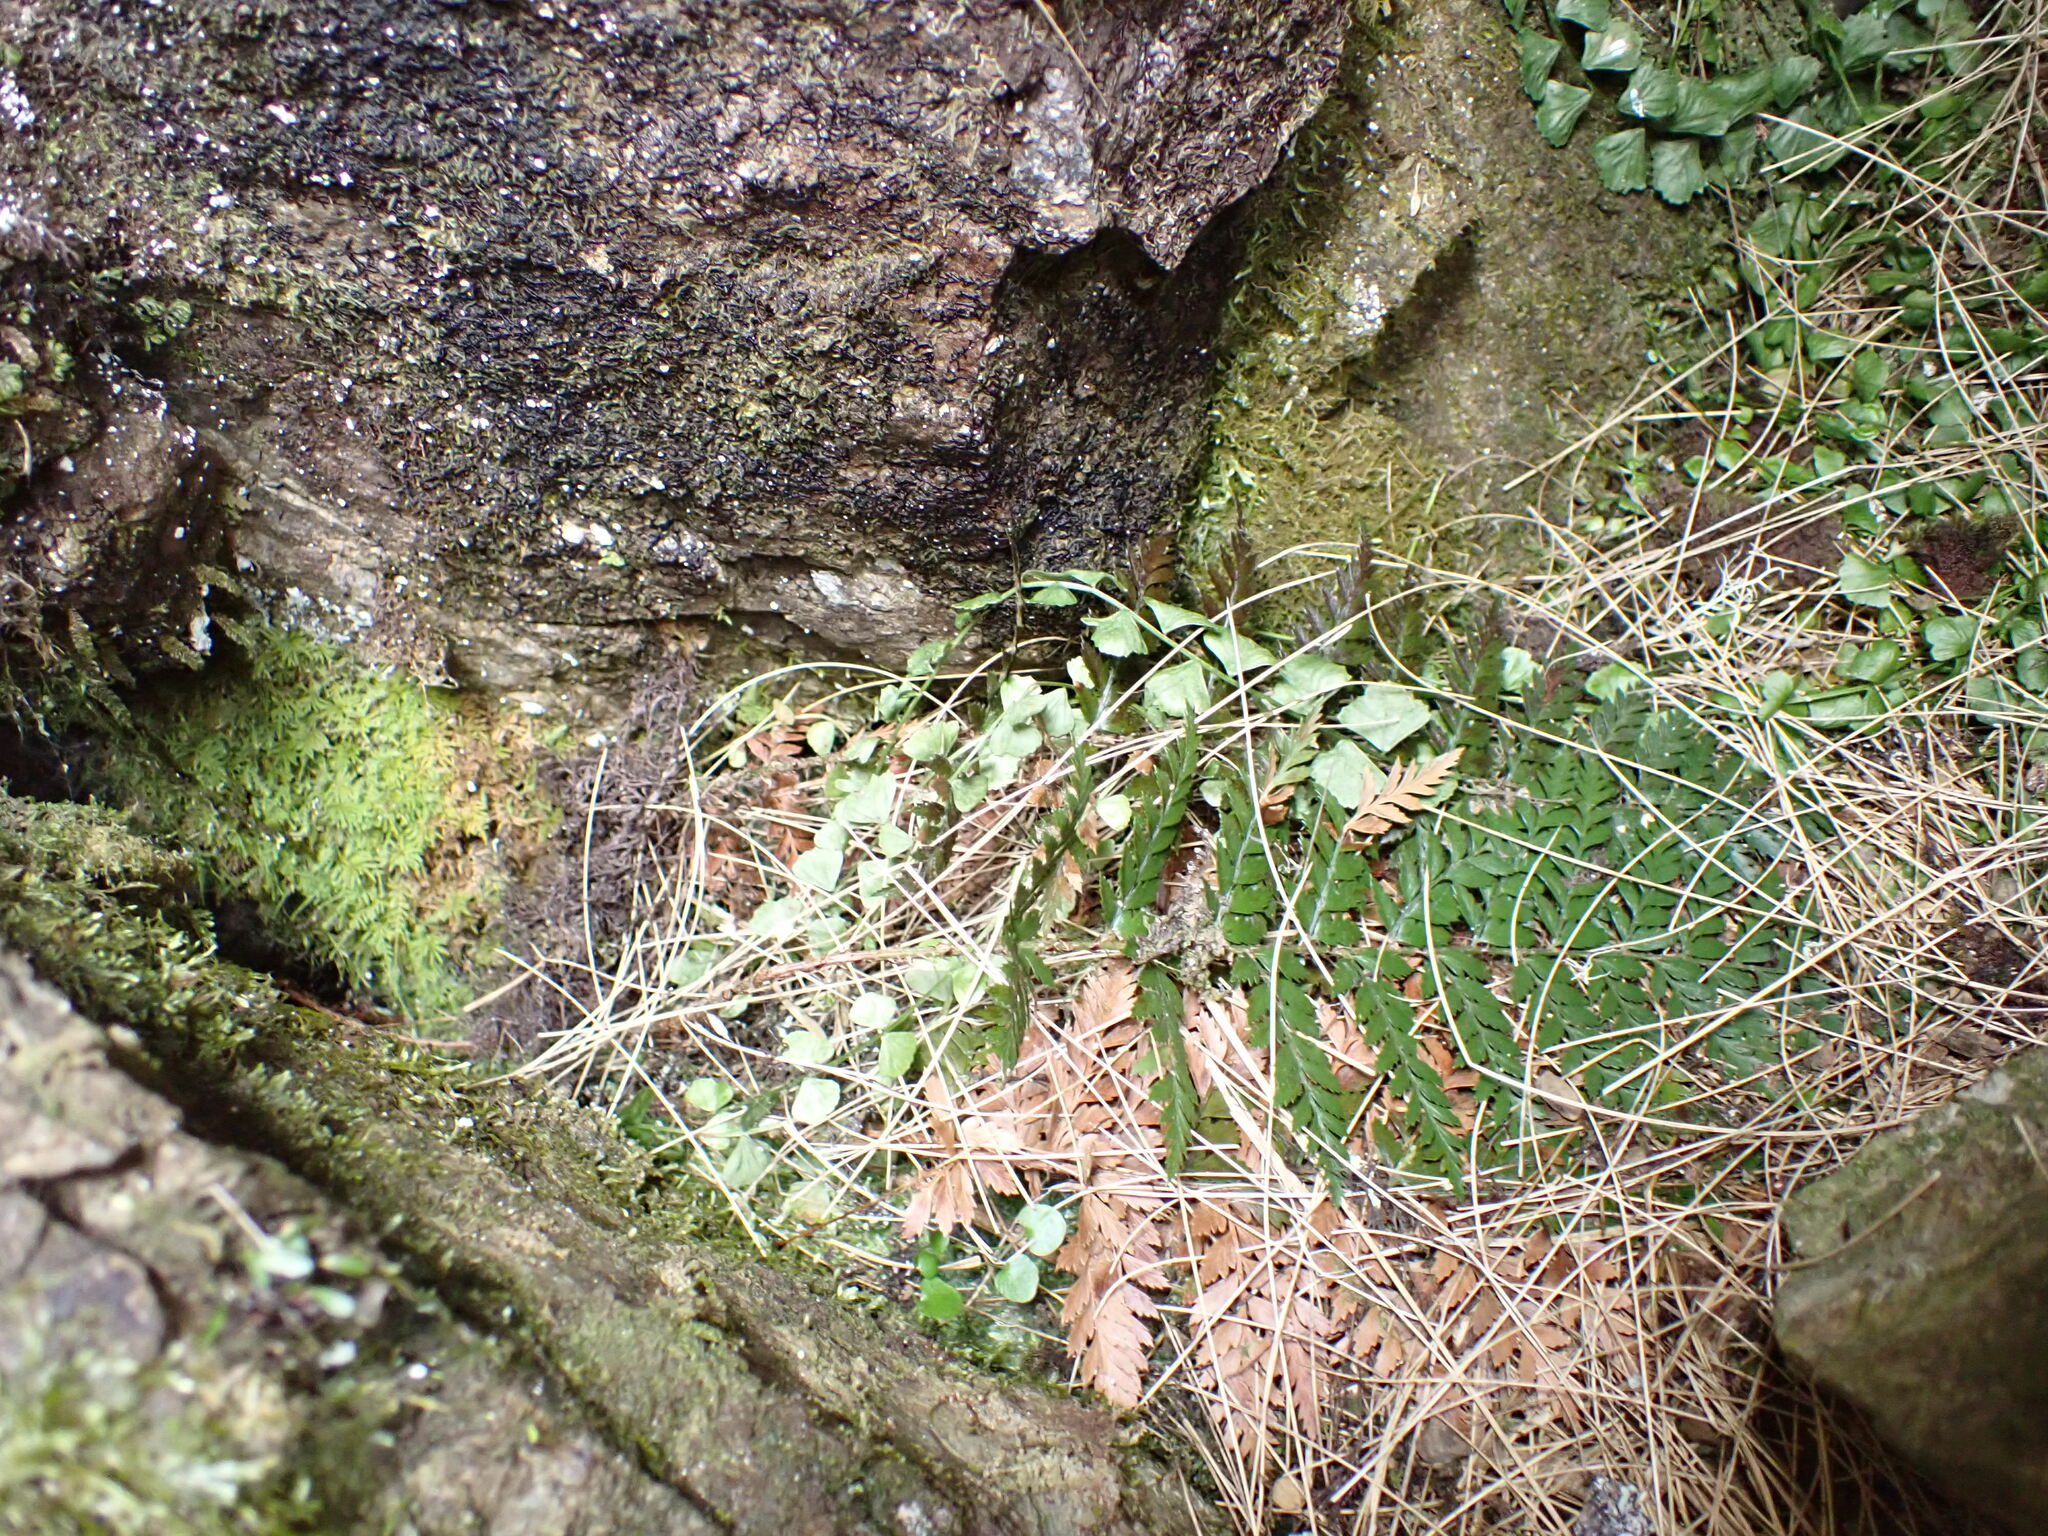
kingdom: Plantae
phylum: Tracheophyta
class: Polypodiopsida
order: Polypodiales
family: Aspleniaceae
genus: Asplenium
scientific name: Asplenium flabellifolium
